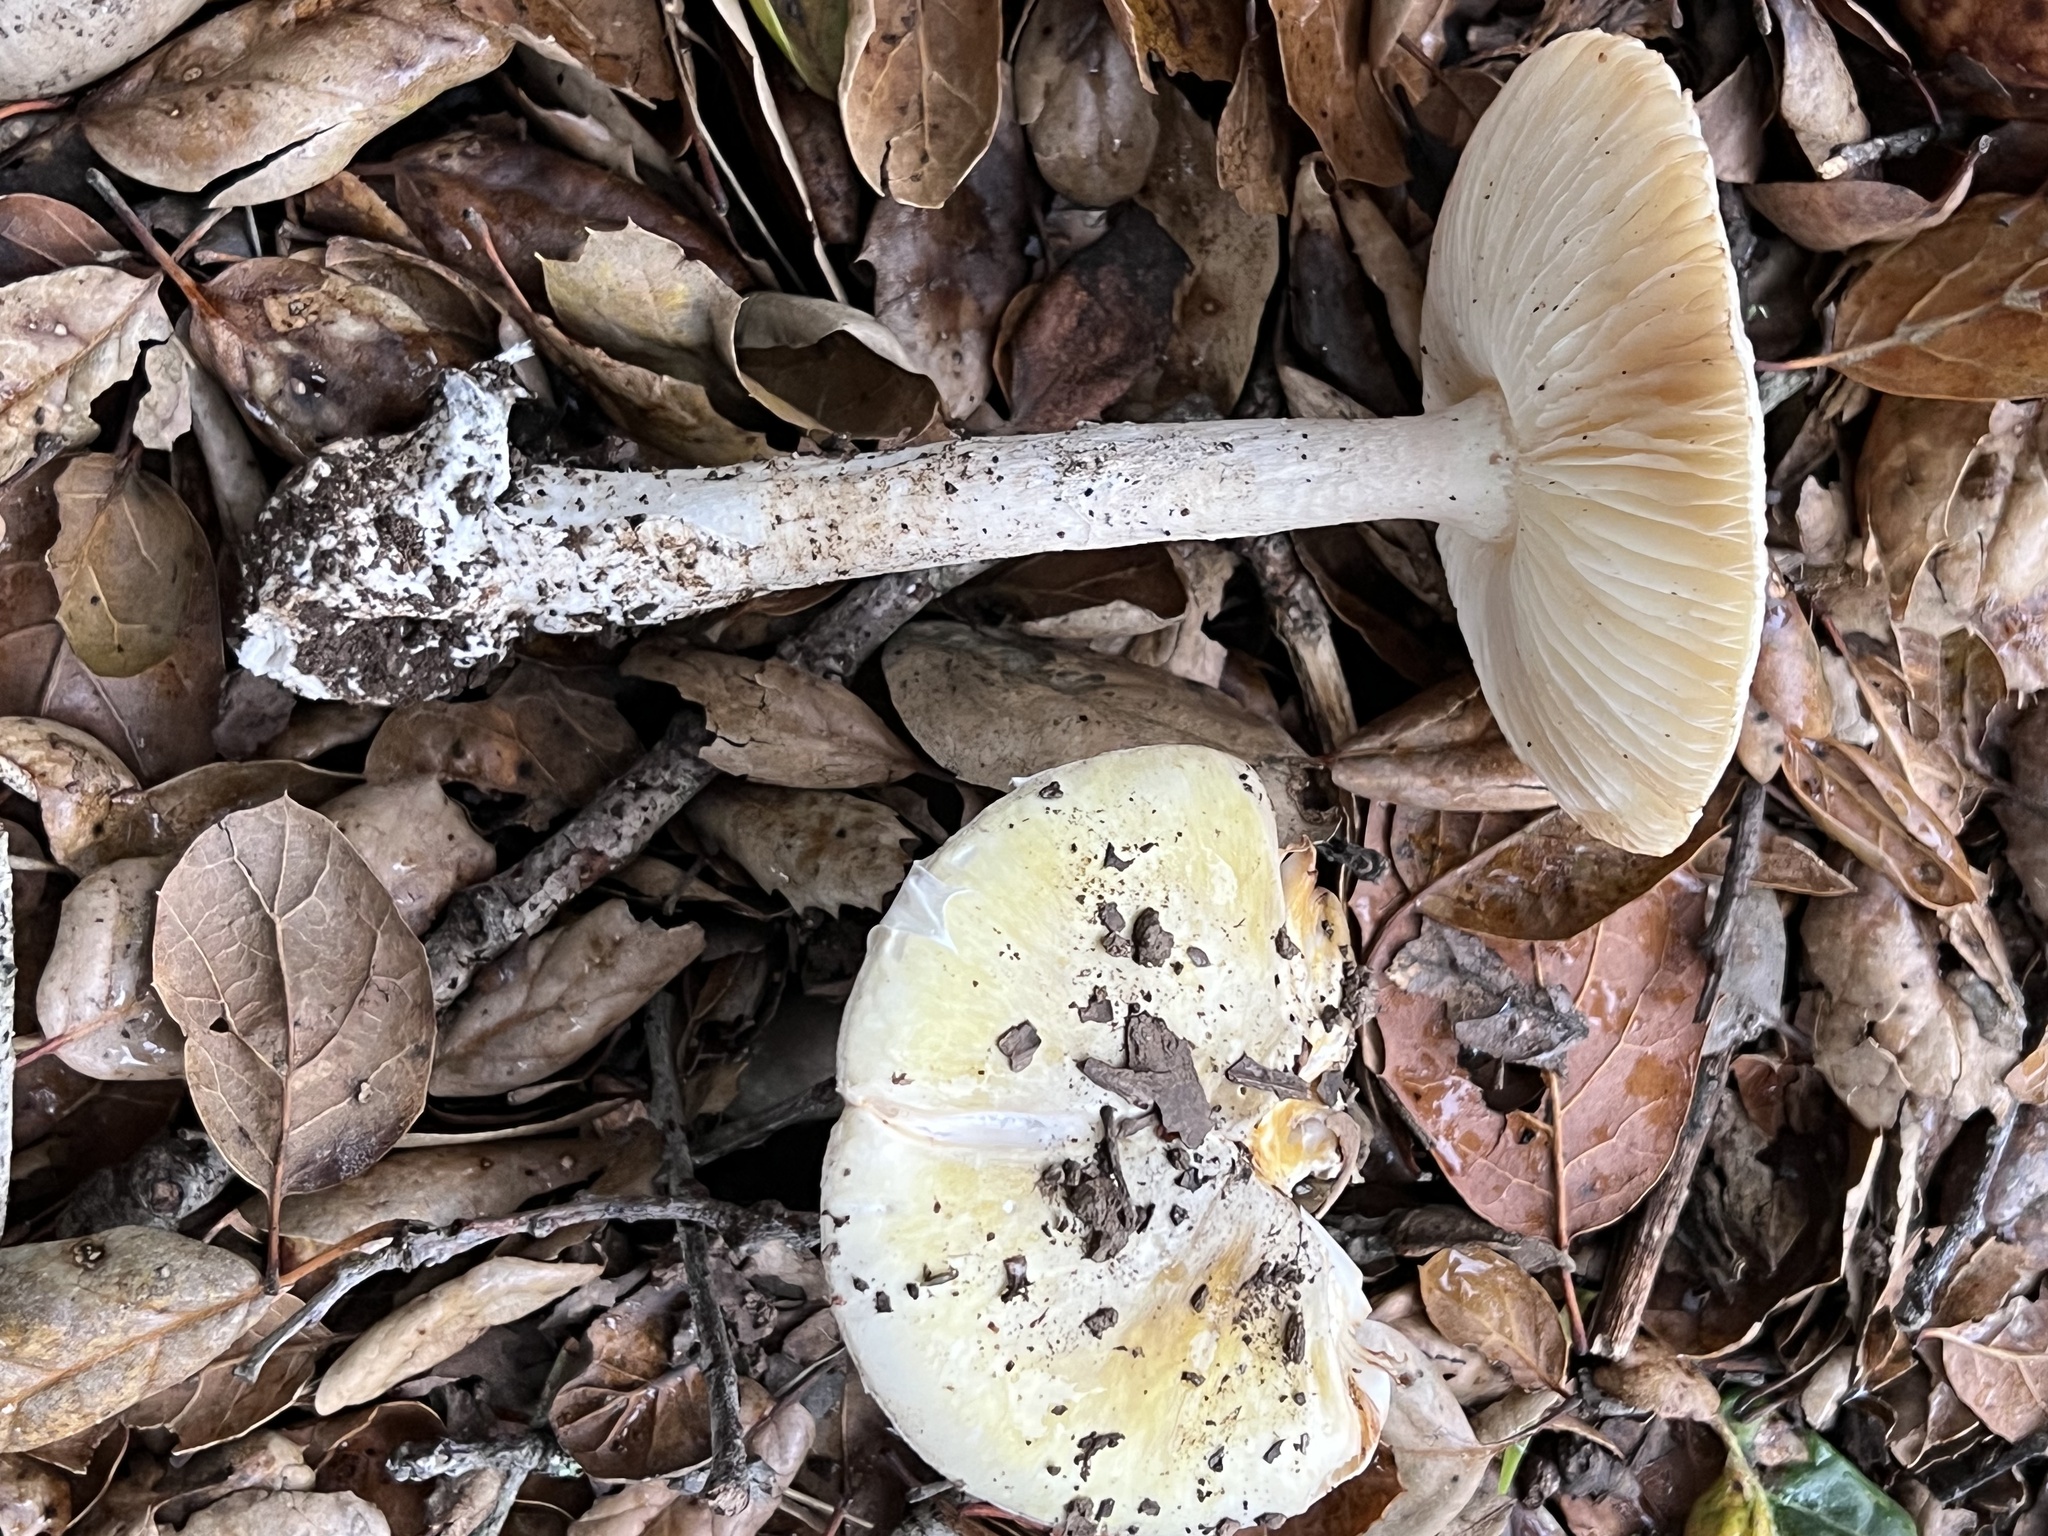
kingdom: Fungi
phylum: Basidiomycota
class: Agaricomycetes
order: Agaricales
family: Amanitaceae
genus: Amanita
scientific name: Amanita phalloides
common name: Death cap
